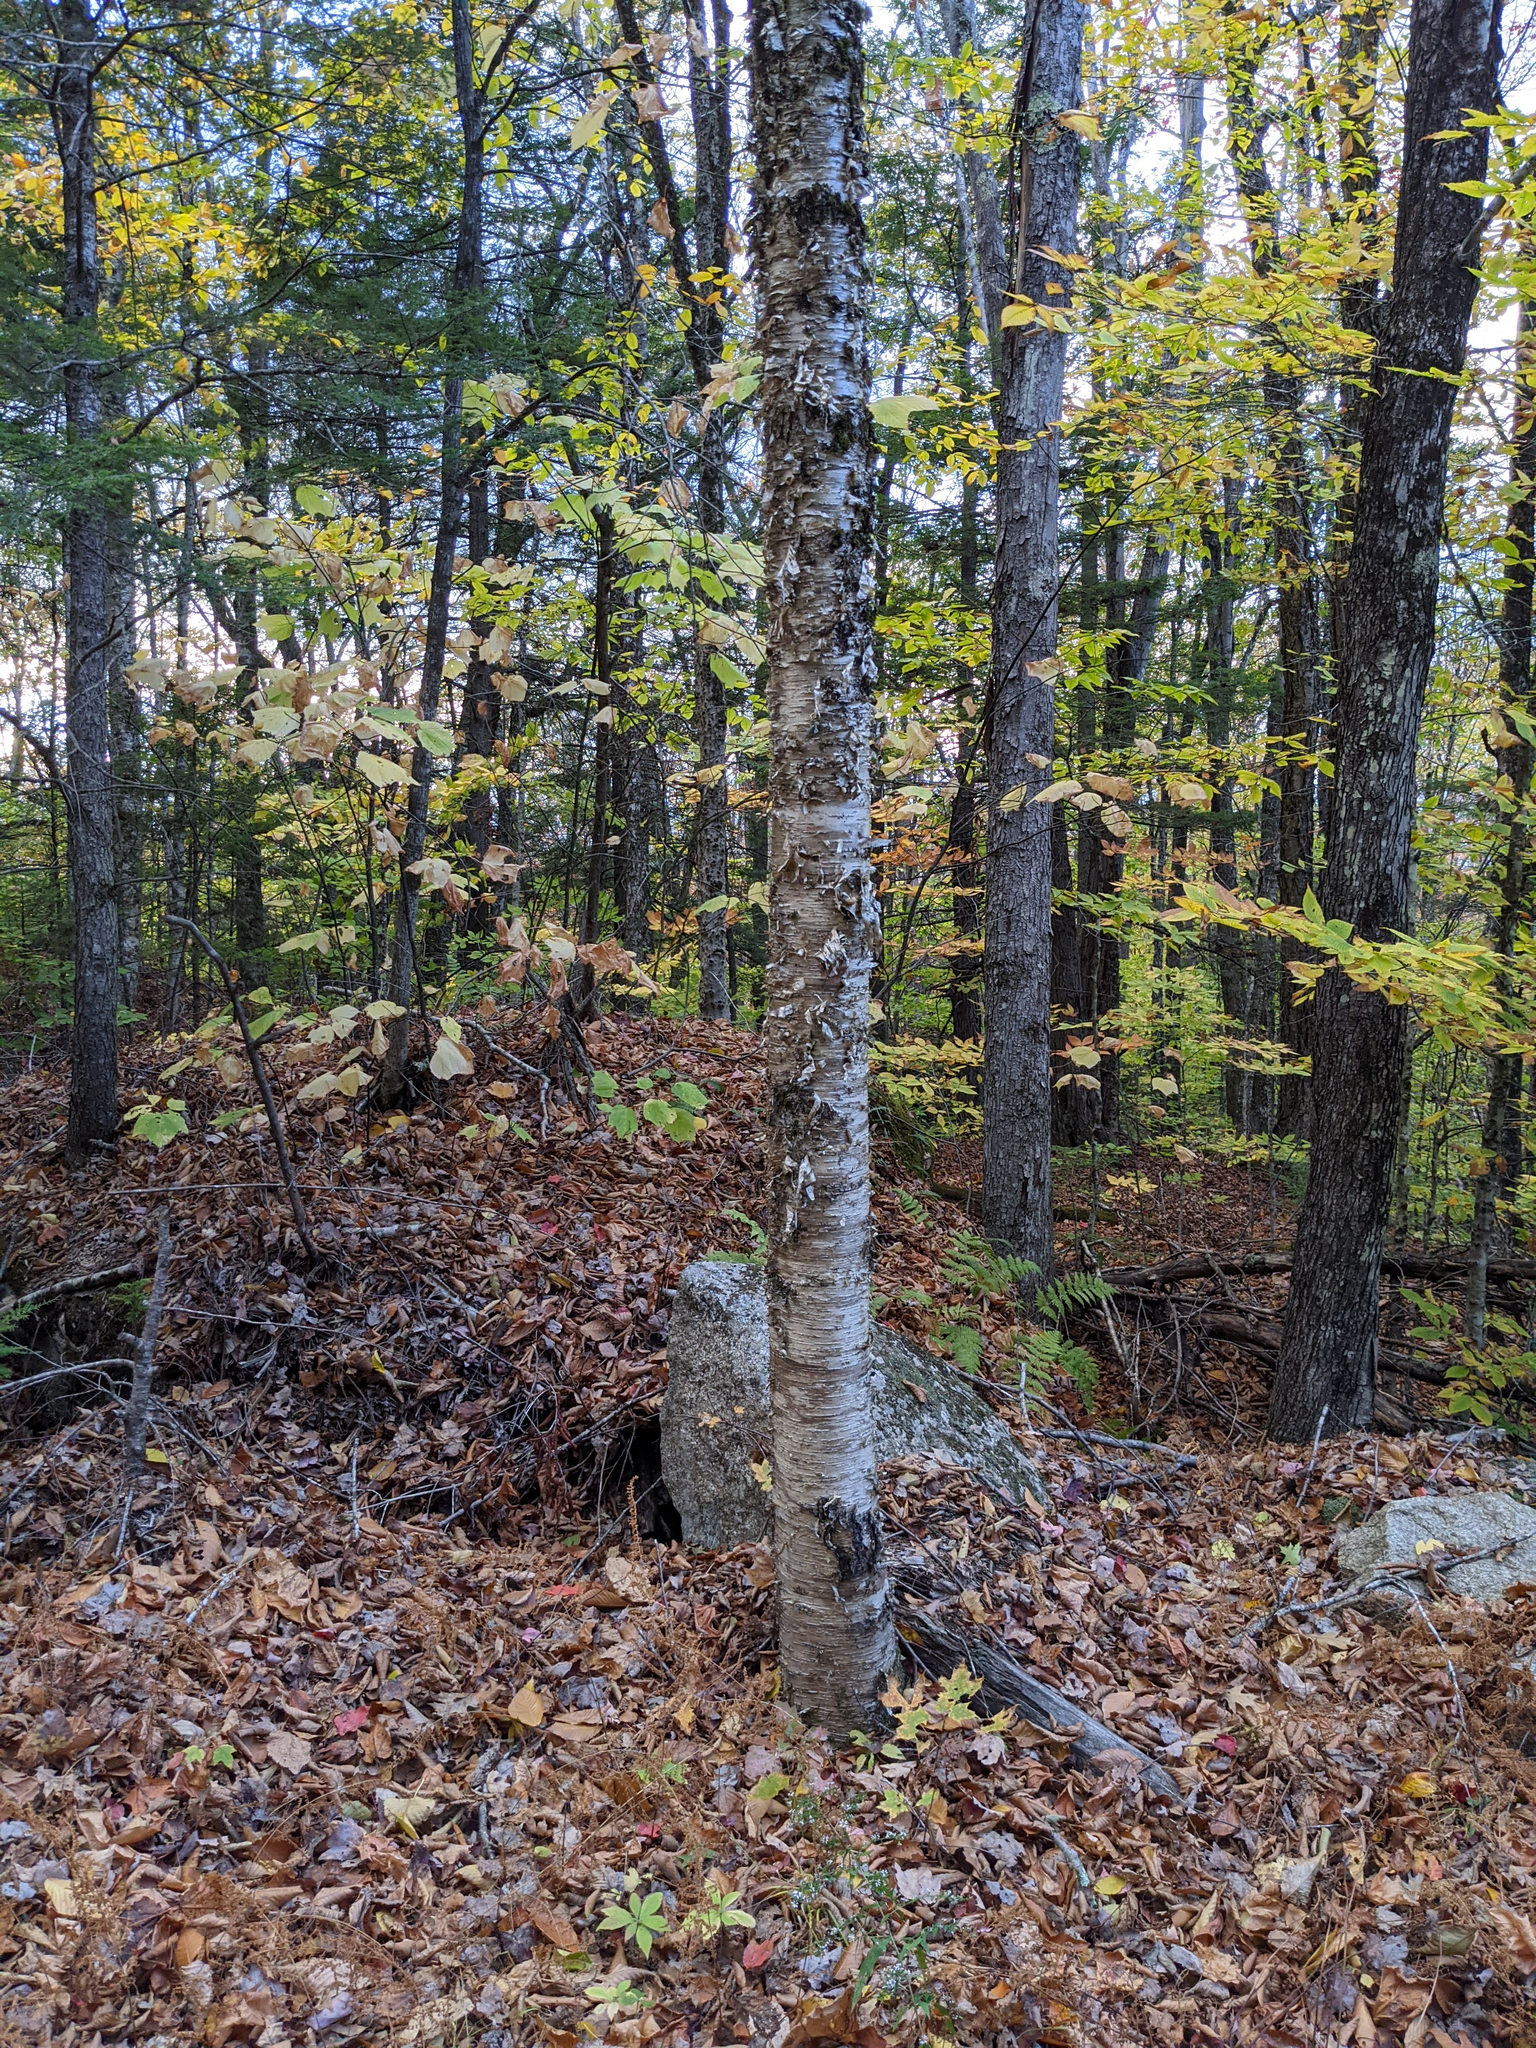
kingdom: Plantae
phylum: Tracheophyta
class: Magnoliopsida
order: Fagales
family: Betulaceae
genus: Betula
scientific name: Betula alleghaniensis
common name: Yellow birch
